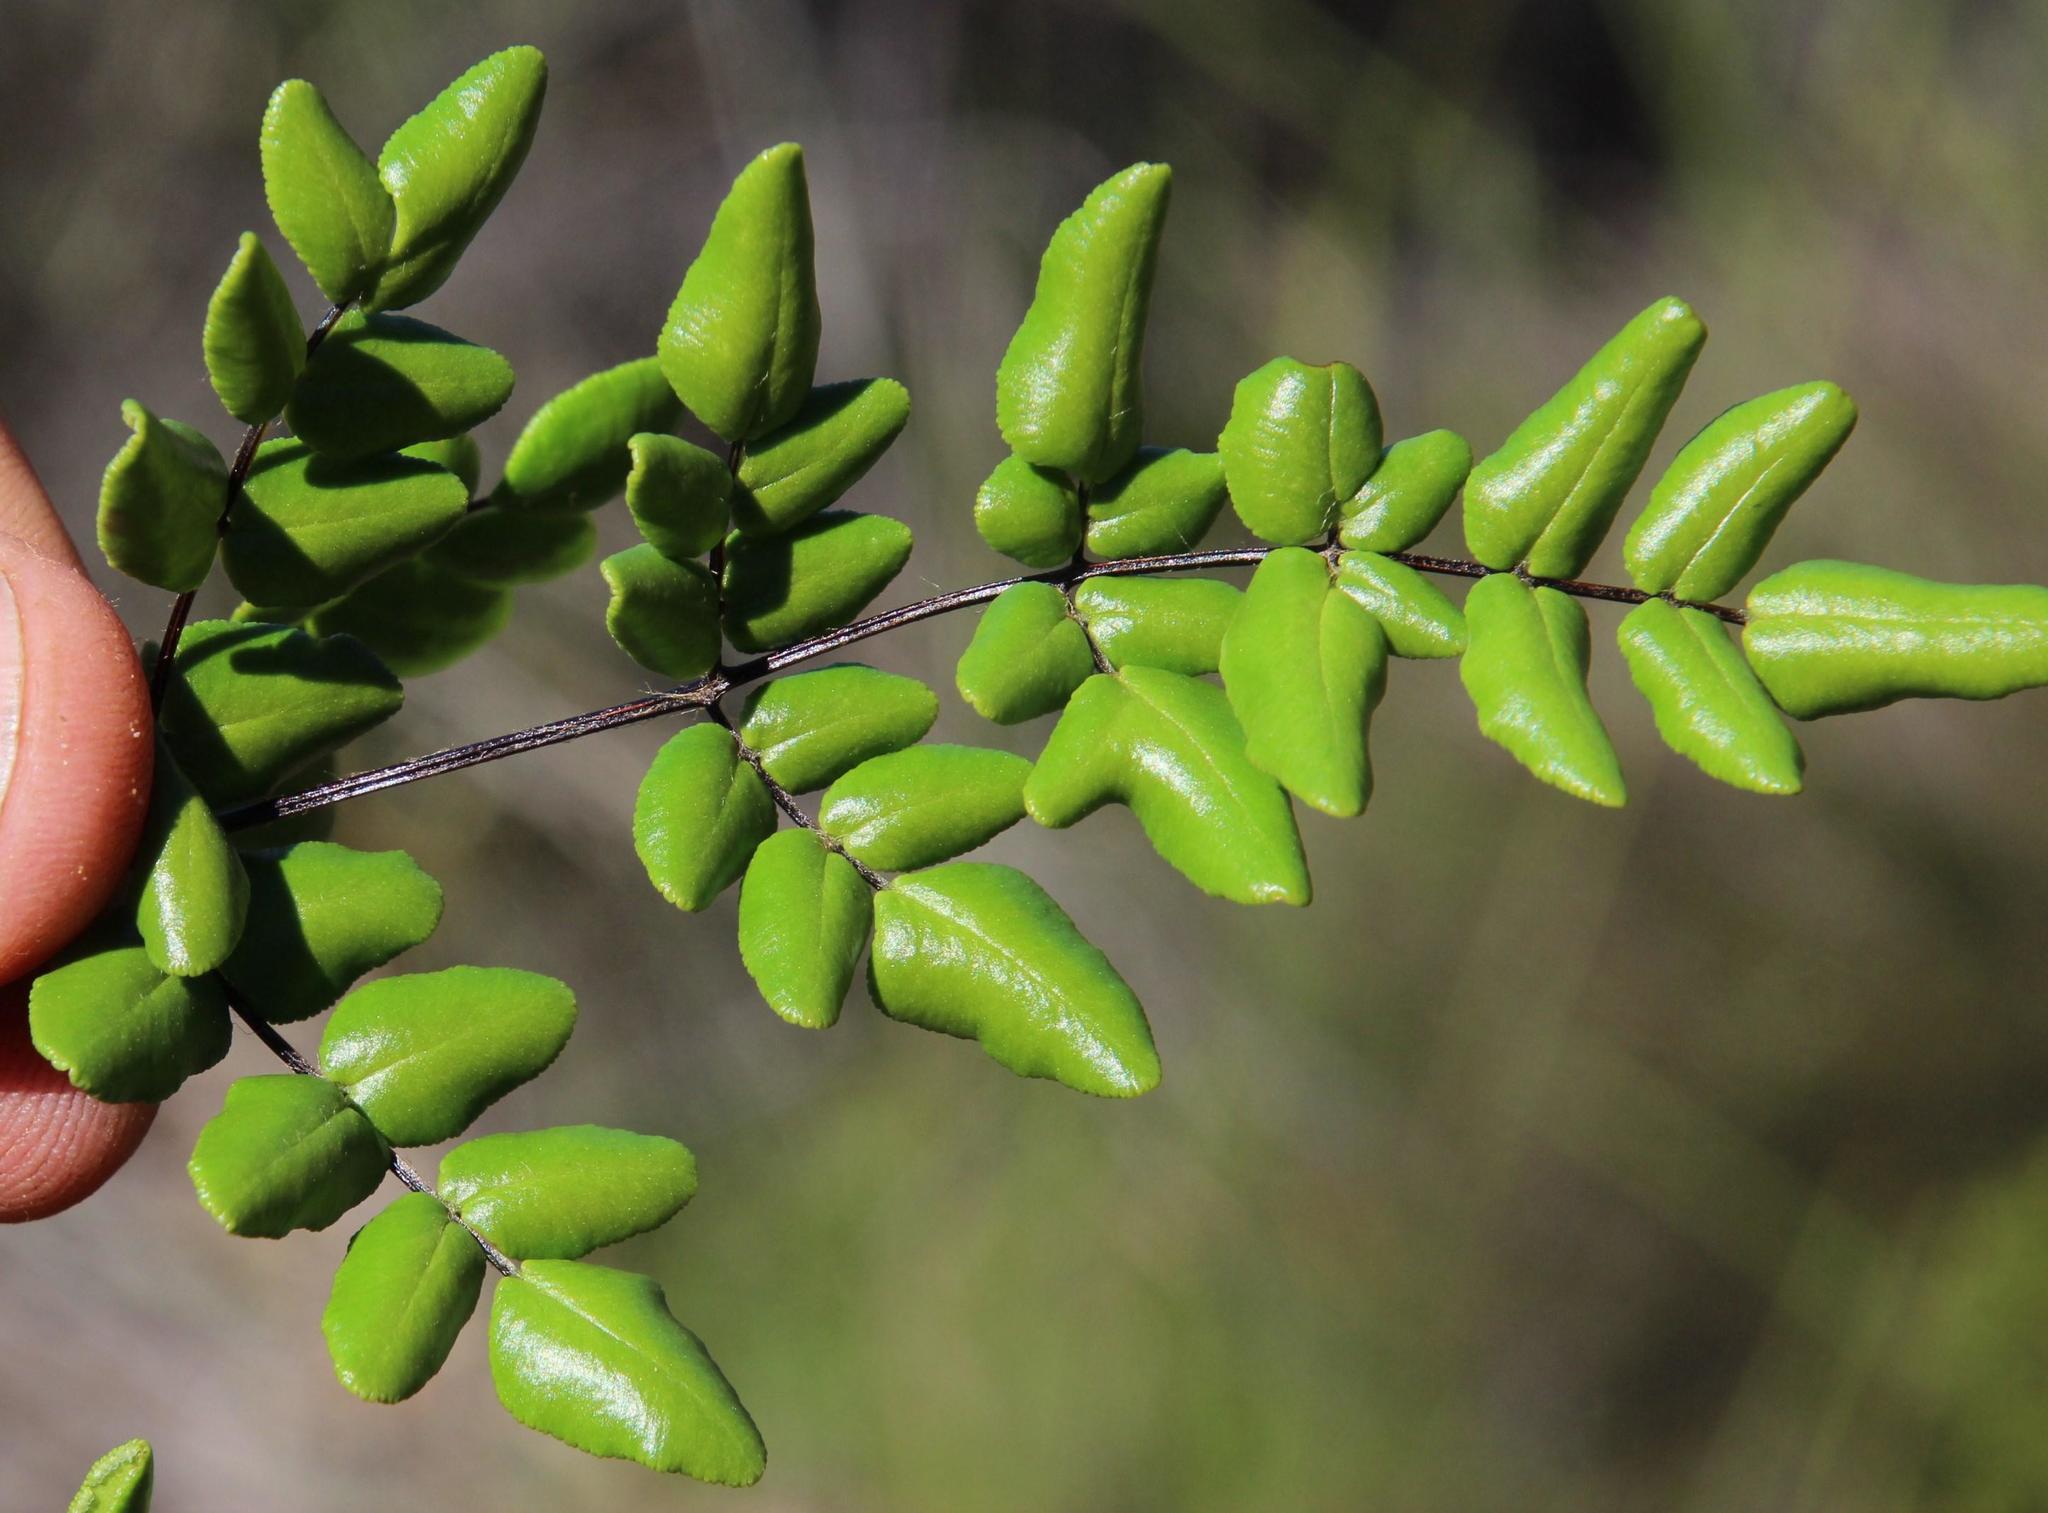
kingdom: Plantae
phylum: Tracheophyta
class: Polypodiopsida
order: Polypodiales
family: Pteridaceae
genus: Cheilanthes
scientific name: Cheilanthes viridis
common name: Green cliffbrake
